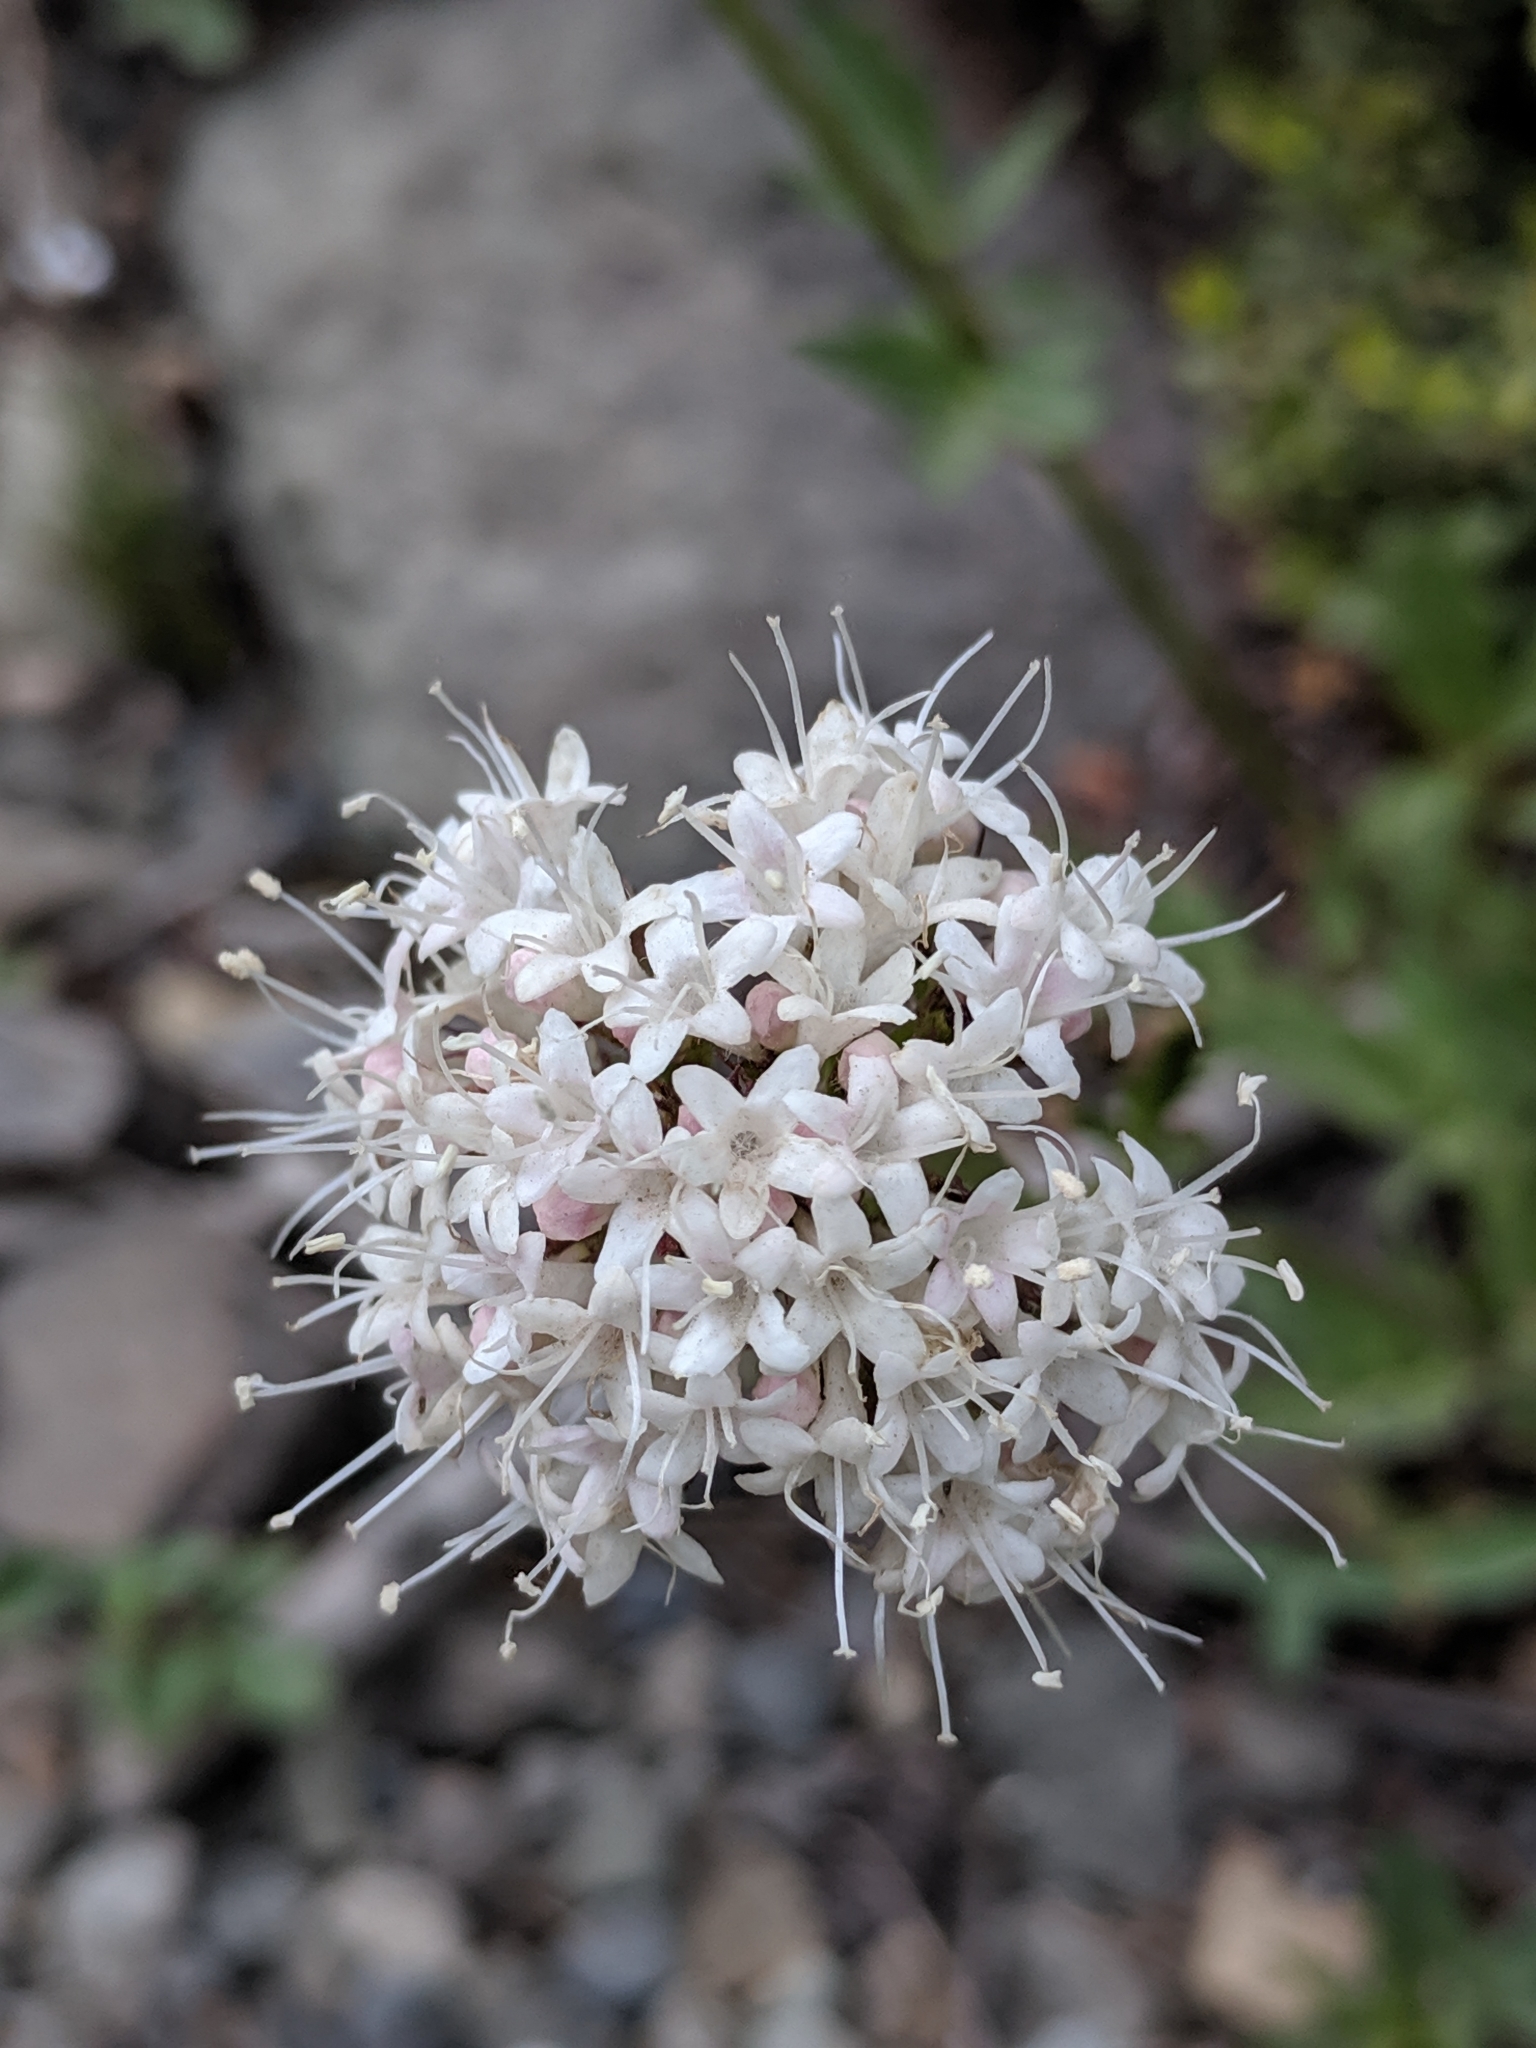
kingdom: Plantae
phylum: Tracheophyta
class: Magnoliopsida
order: Dipsacales
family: Caprifoliaceae
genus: Valeriana
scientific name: Valeriana sitchensis
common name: Pacific valerian
